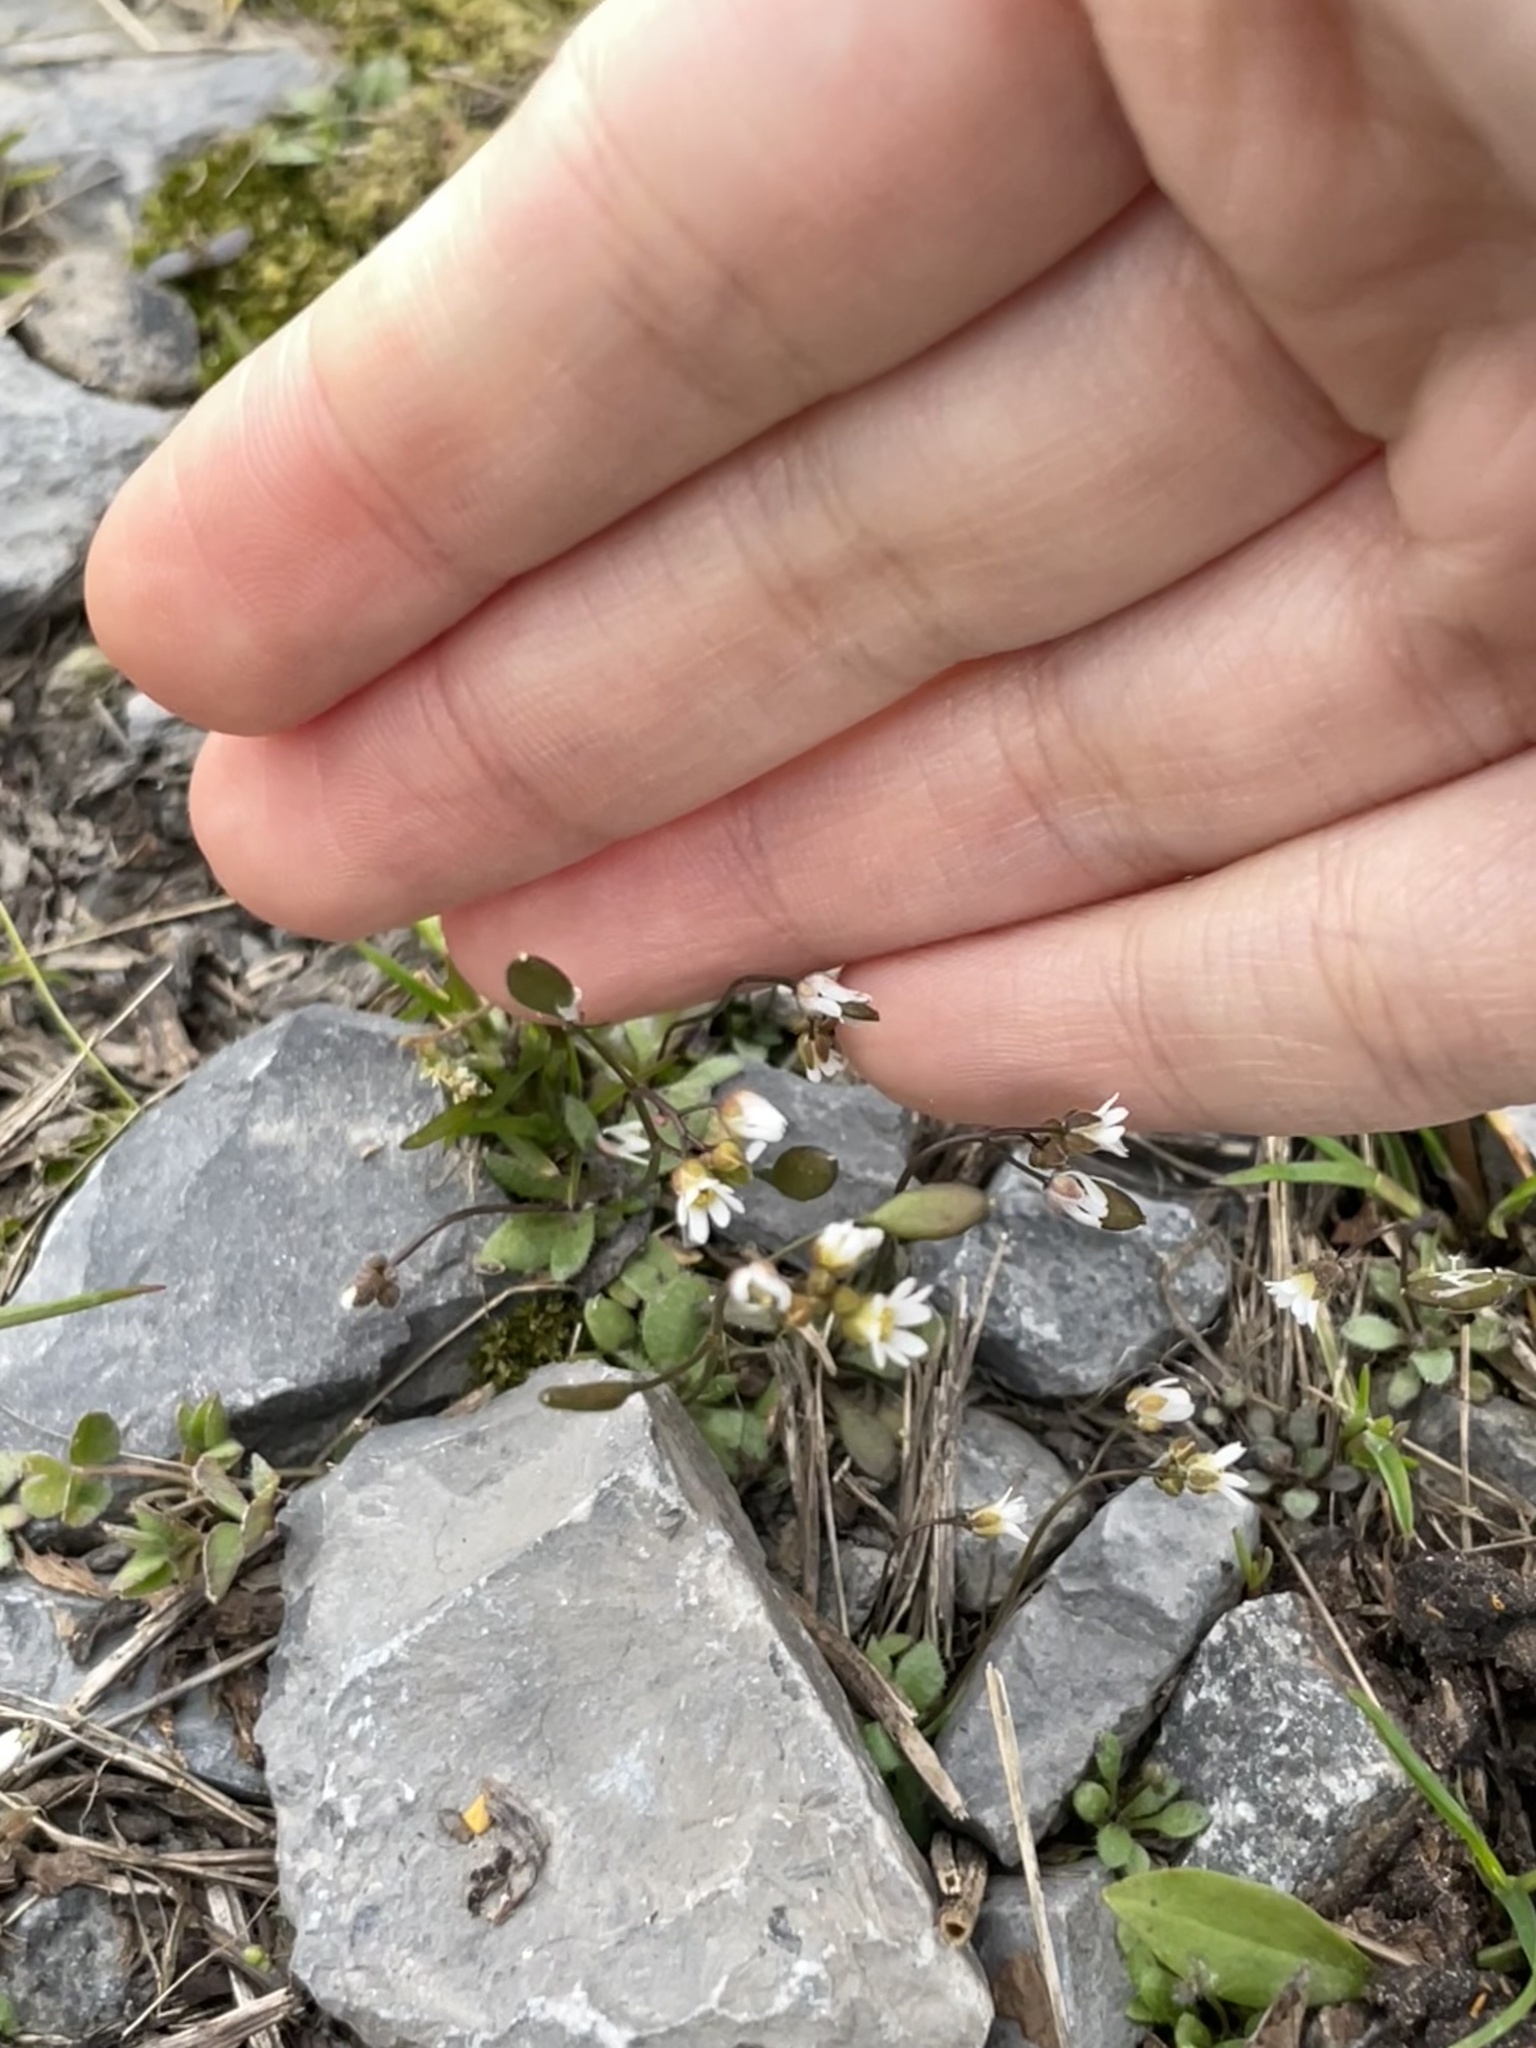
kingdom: Plantae
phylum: Tracheophyta
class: Magnoliopsida
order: Brassicales
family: Brassicaceae
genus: Draba
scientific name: Draba verna
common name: Spring draba
